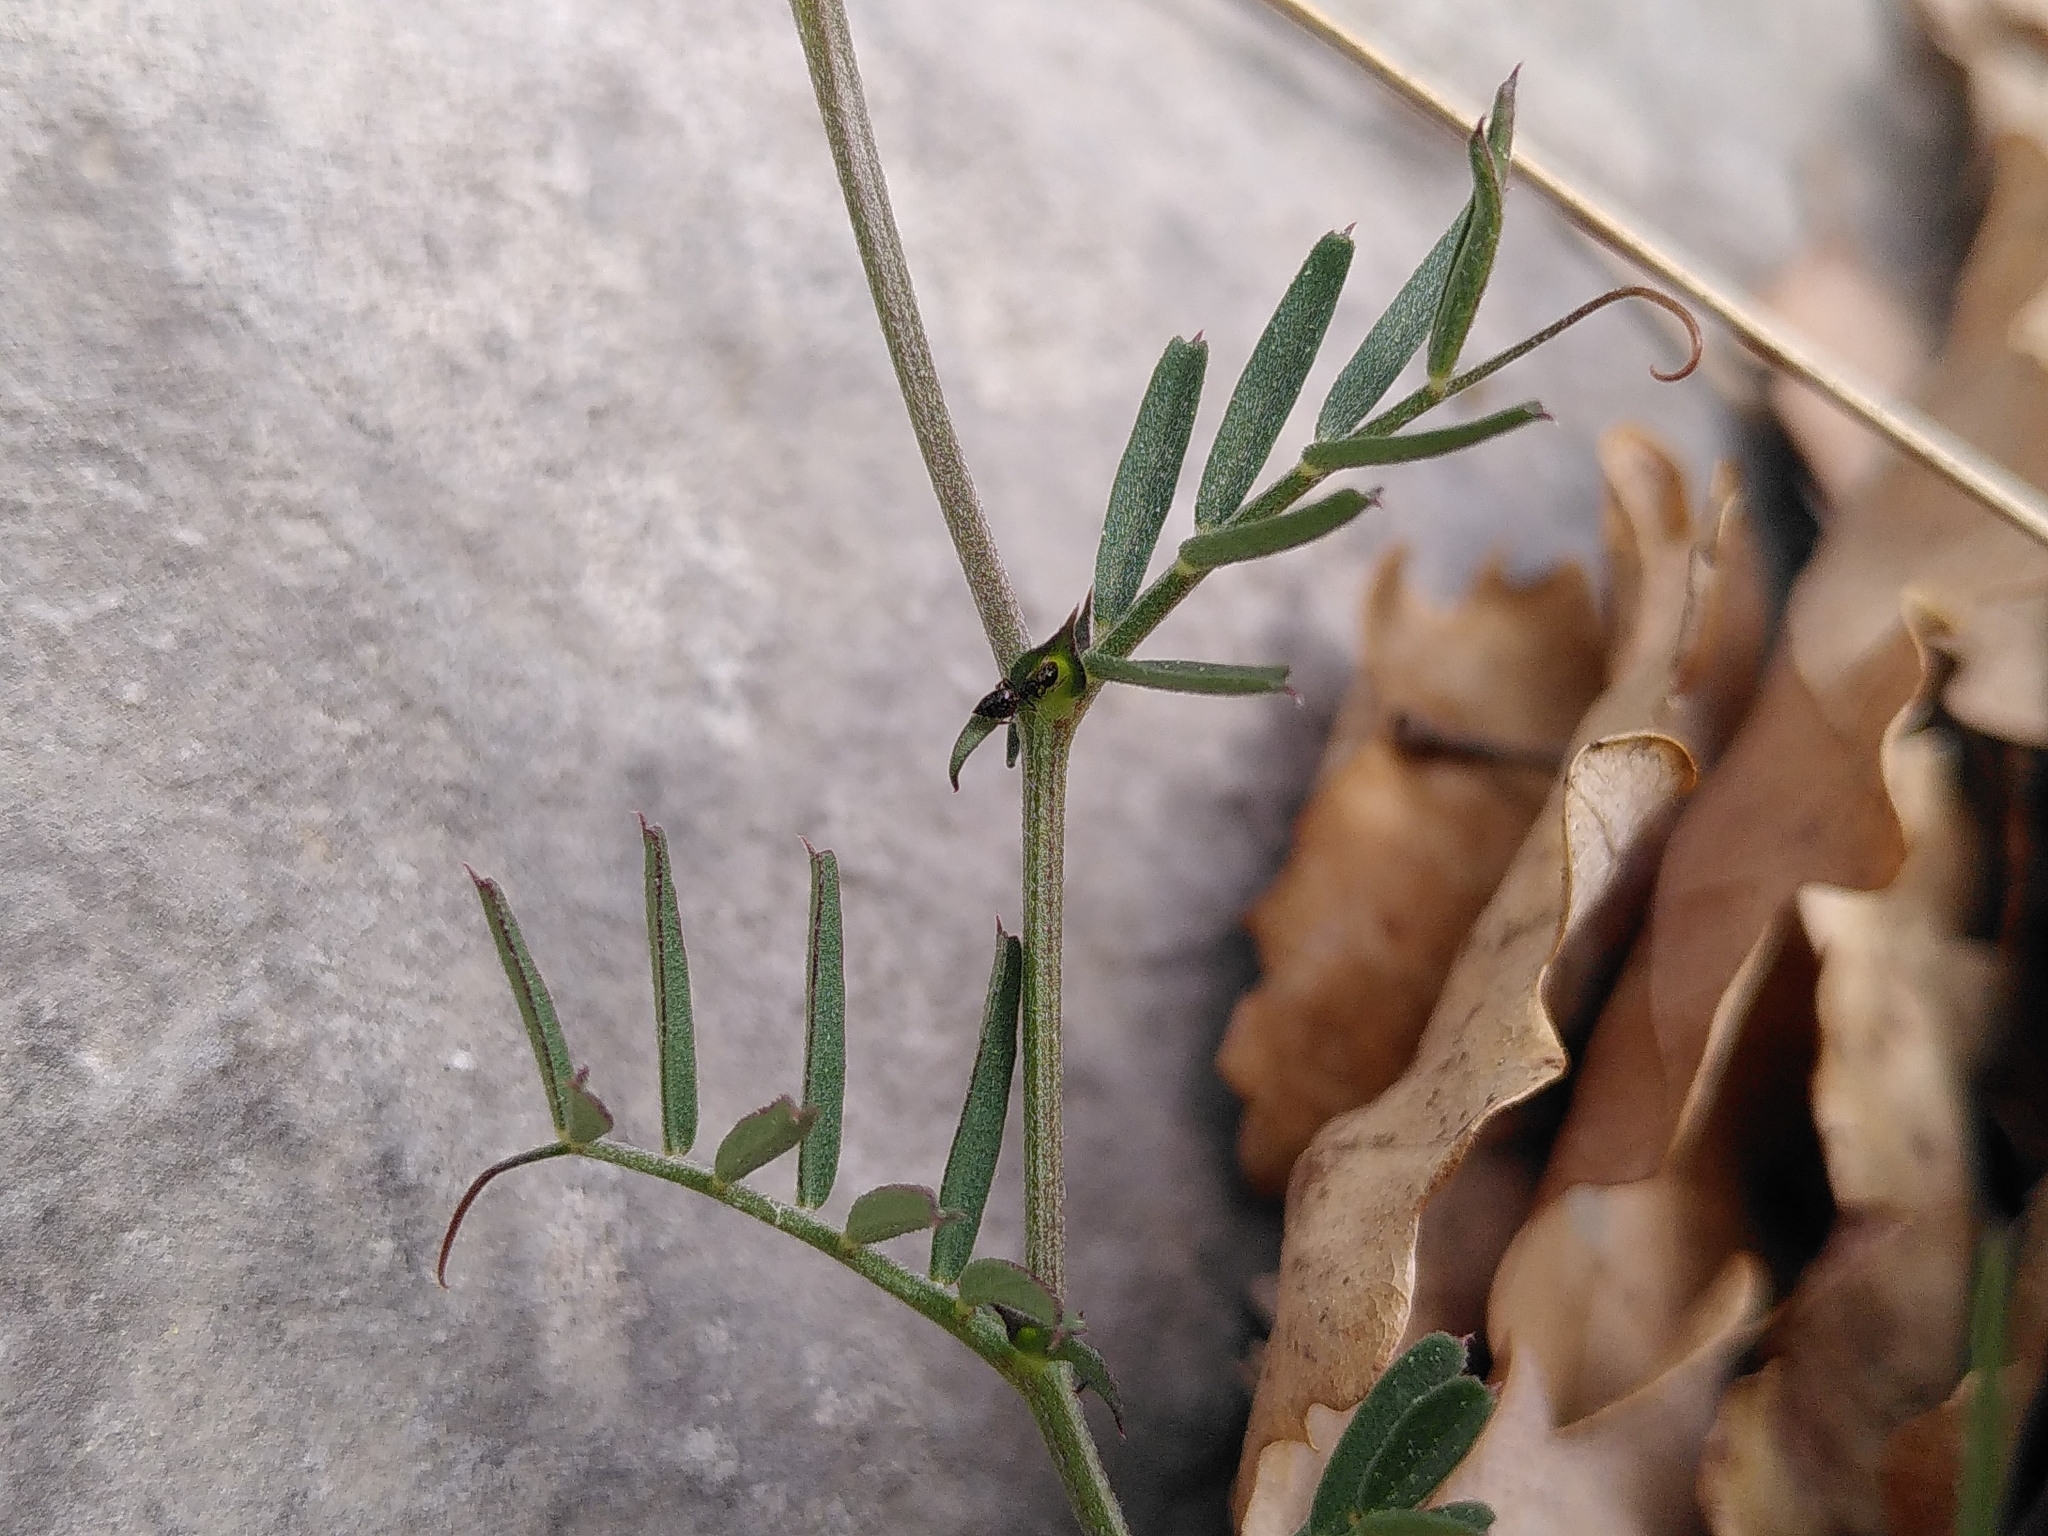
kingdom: Plantae
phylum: Tracheophyta
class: Magnoliopsida
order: Fabales
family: Fabaceae
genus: Vicia
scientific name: Vicia sativa
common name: Garden vetch
